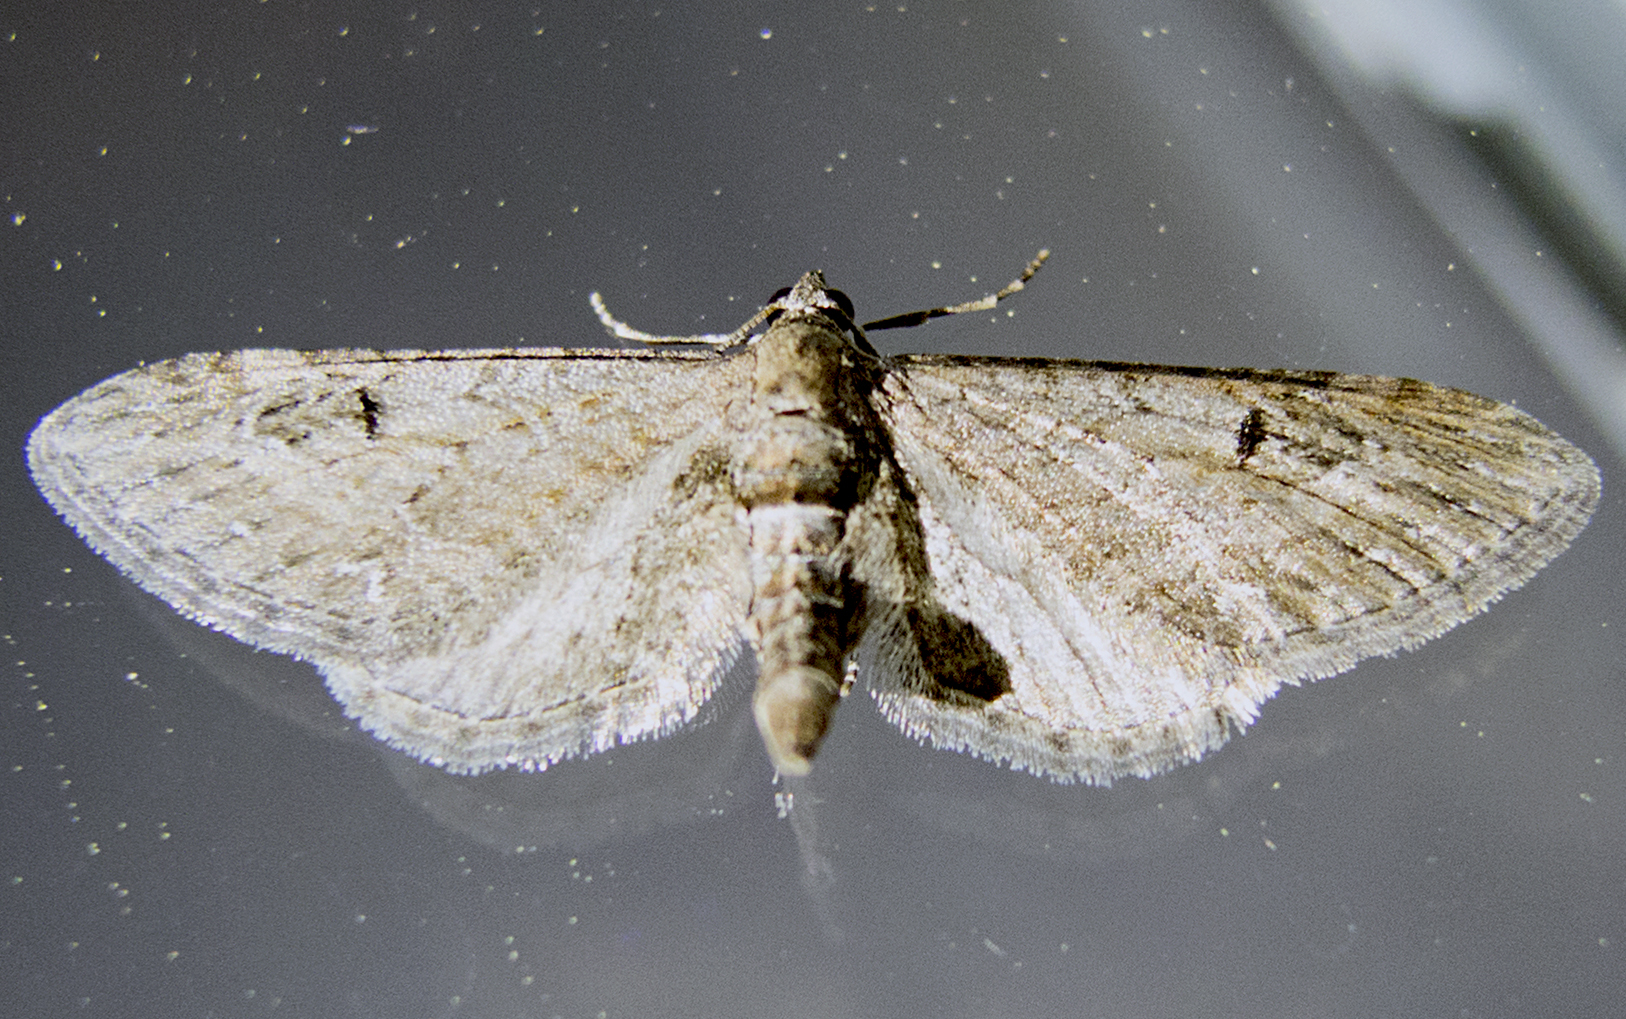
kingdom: Animalia
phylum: Arthropoda
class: Insecta
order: Lepidoptera
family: Geometridae
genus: Eupithecia
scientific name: Eupithecia innotata
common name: Angle-barred pug
